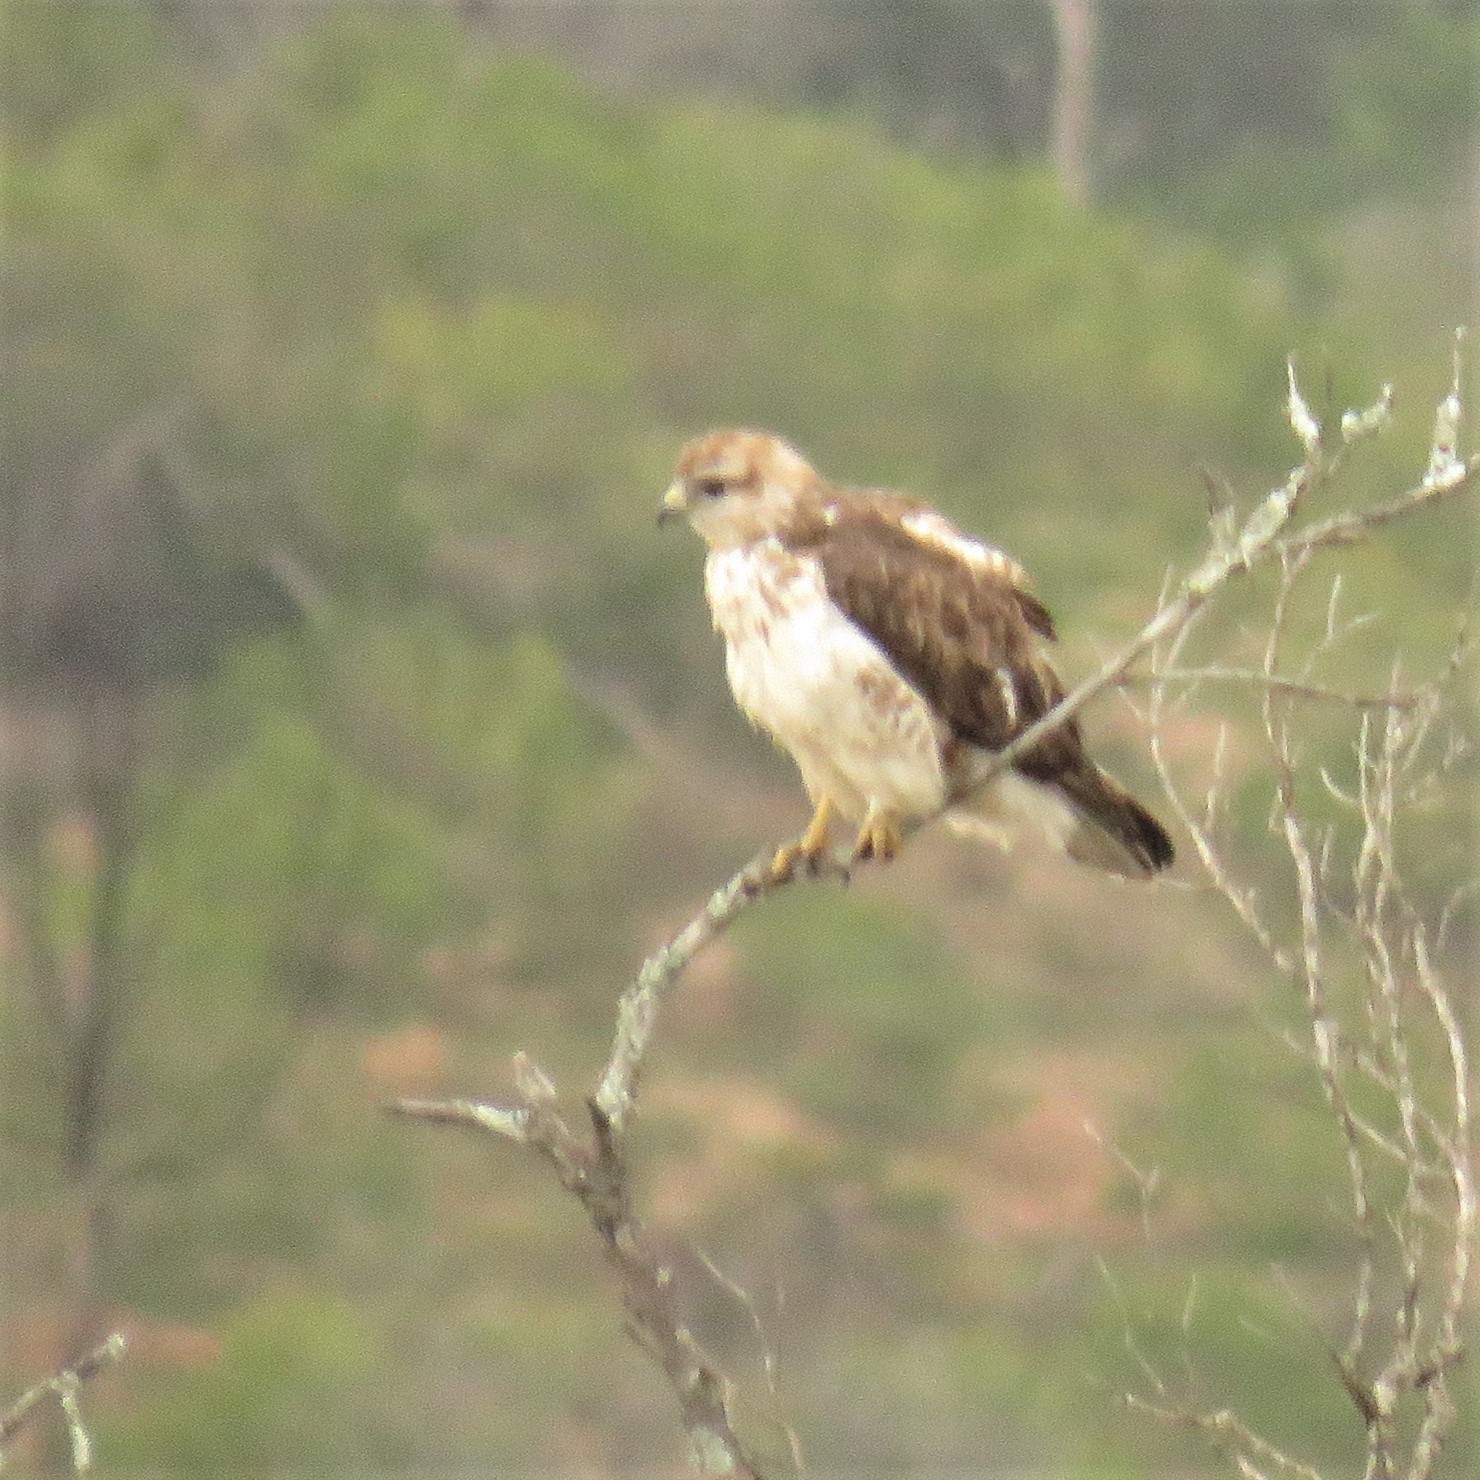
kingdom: Animalia
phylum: Chordata
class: Aves
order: Accipitriformes
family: Accipitridae
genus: Buteo
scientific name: Buteo trizonatus
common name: Forest buzzard
